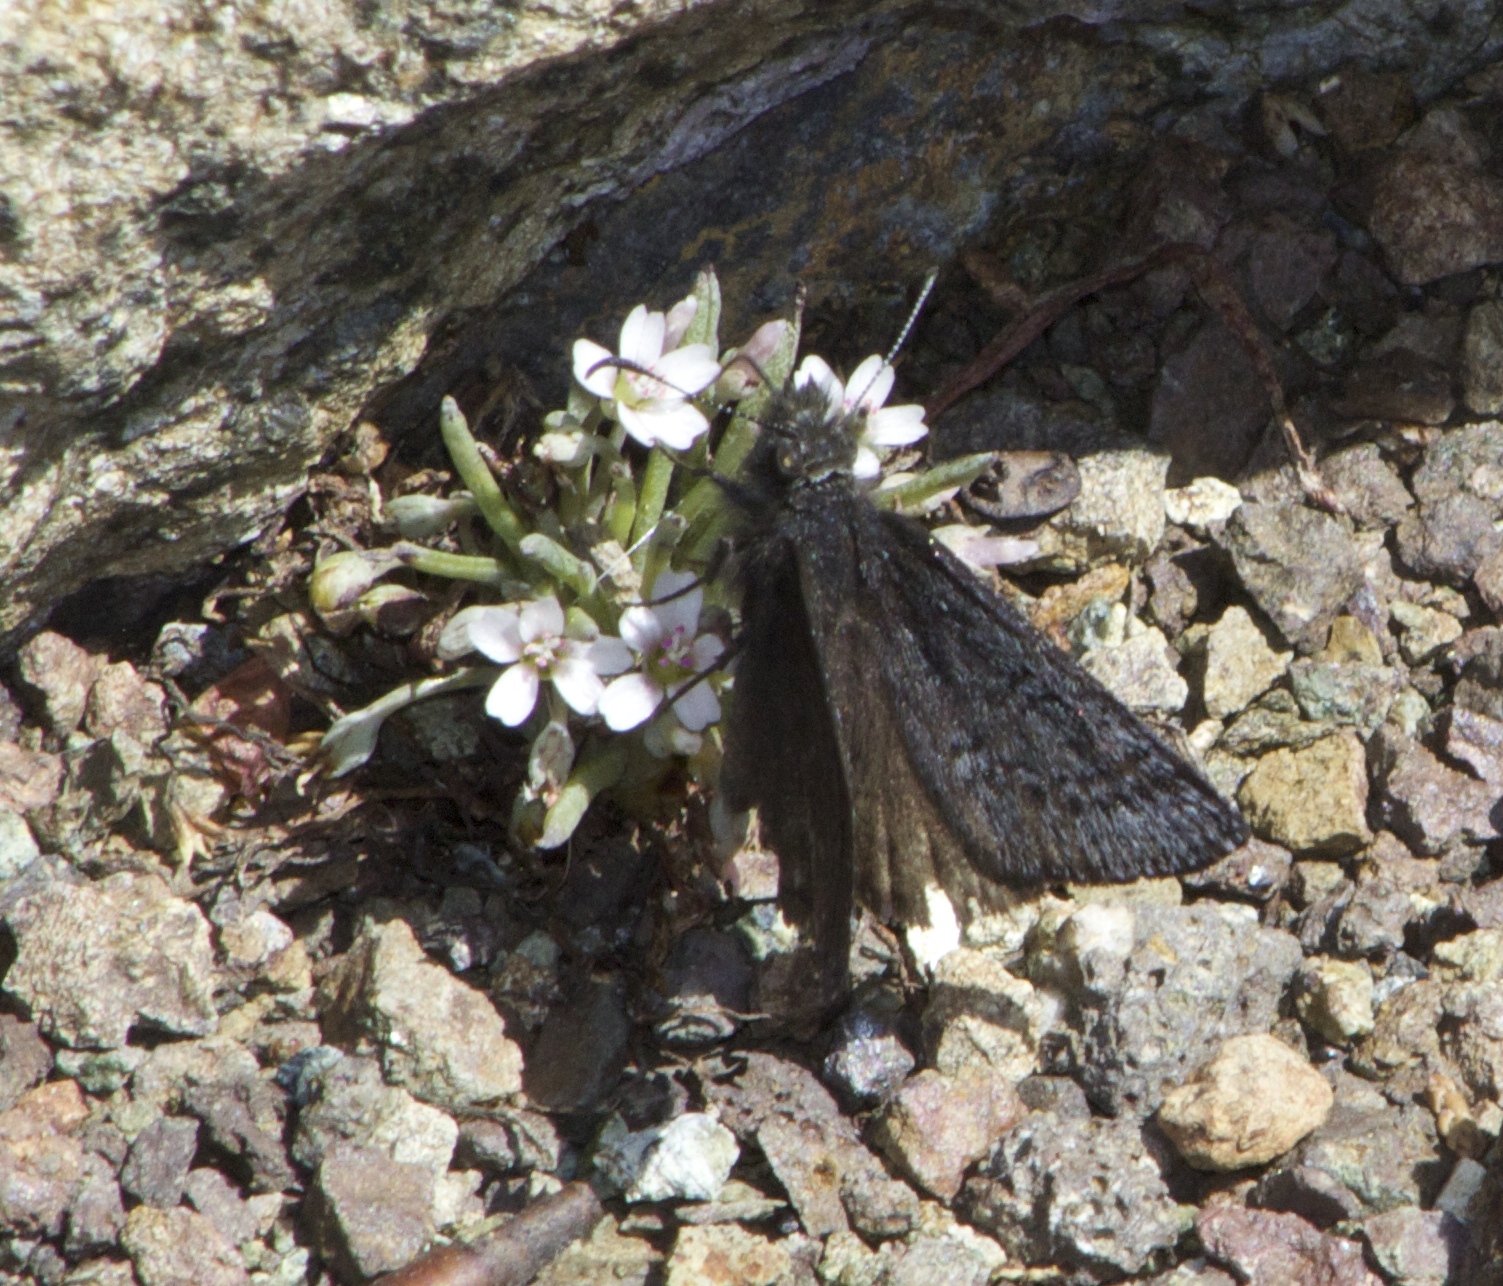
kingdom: Animalia
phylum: Arthropoda
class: Insecta
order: Lepidoptera
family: Hesperiidae
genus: Erynnis
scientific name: Erynnis brizo
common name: Sleepy duskywing
